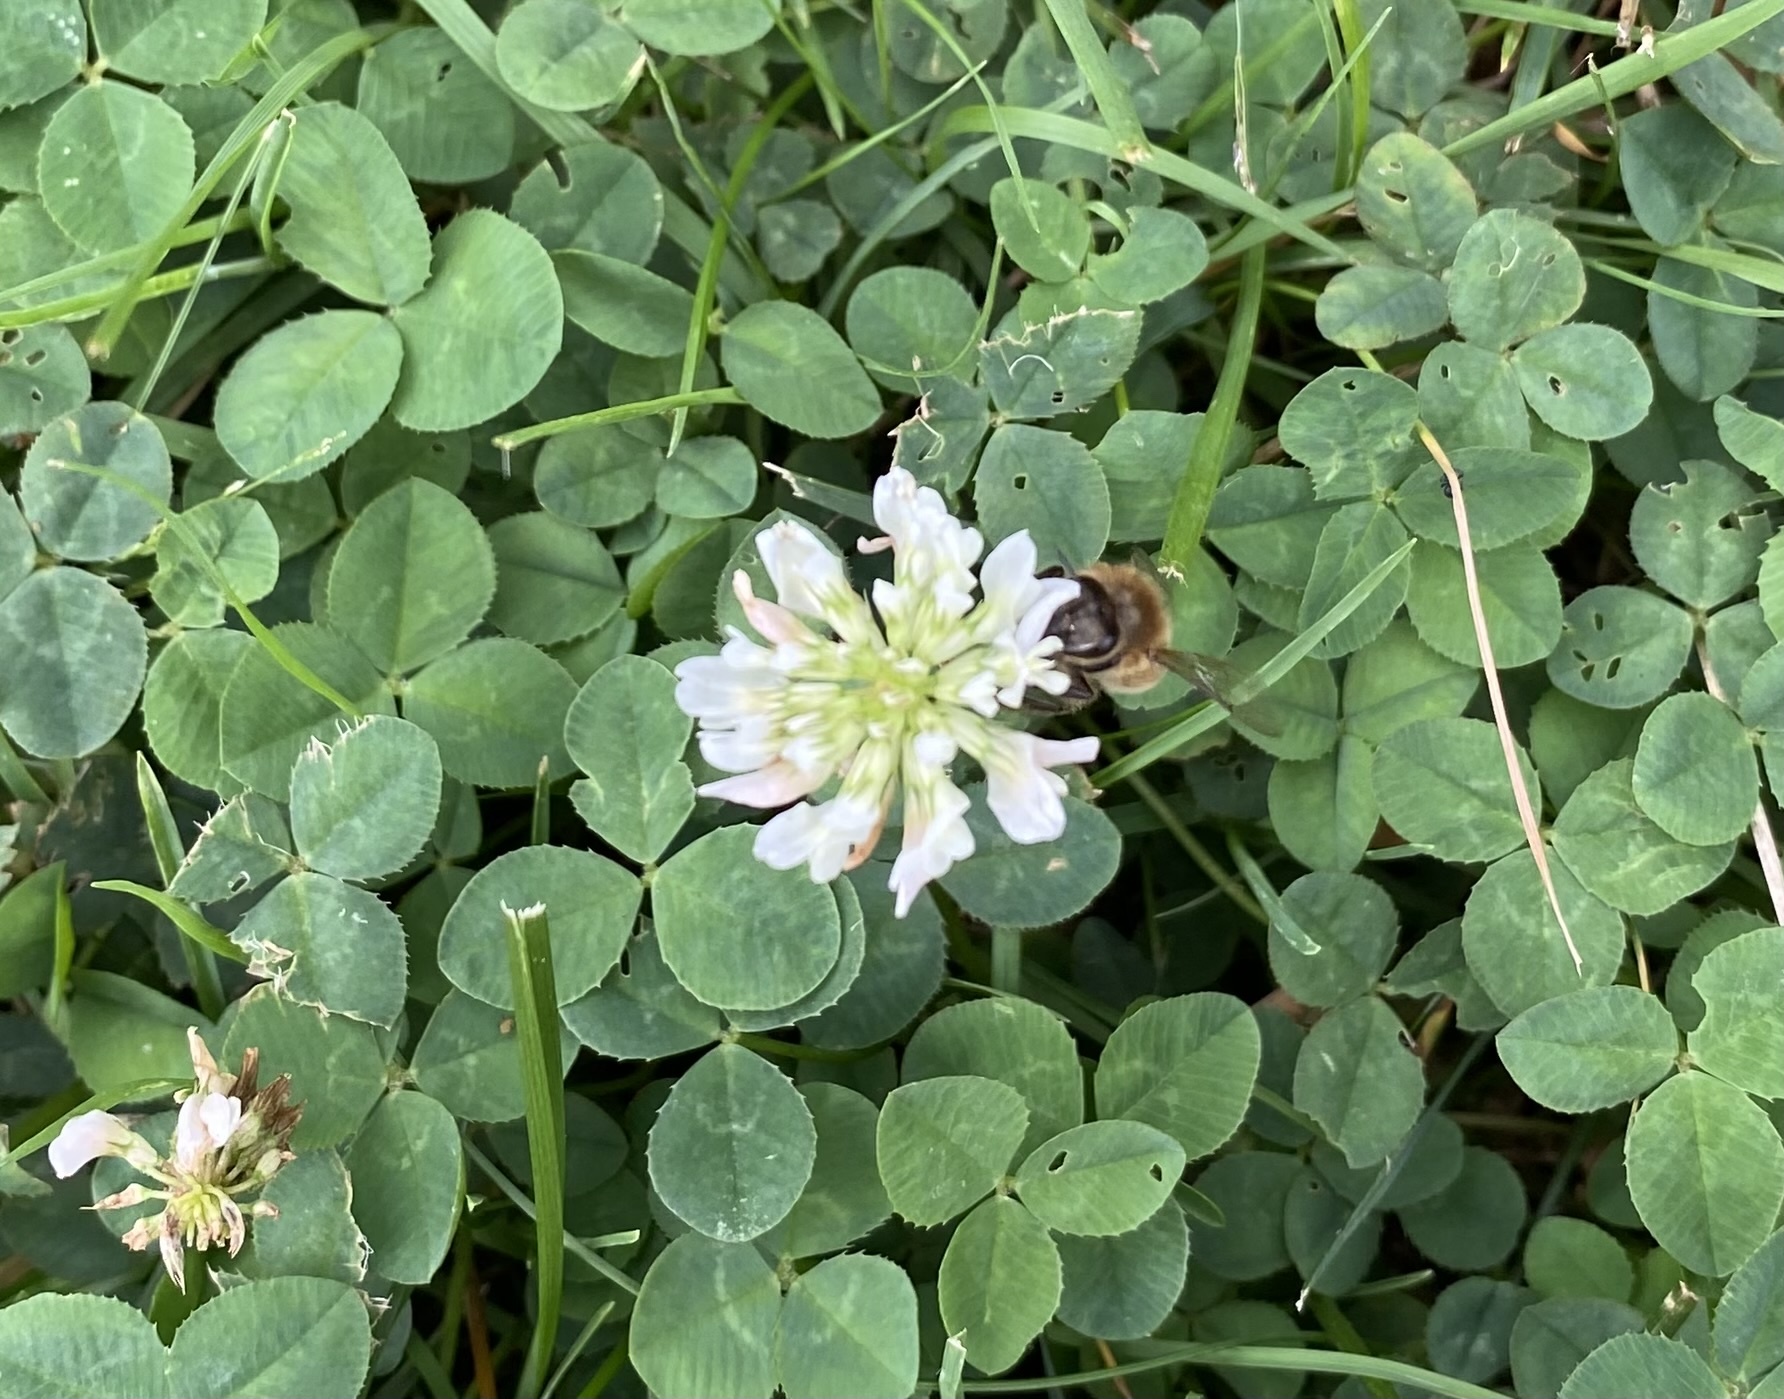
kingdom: Animalia
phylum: Arthropoda
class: Insecta
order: Hymenoptera
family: Apidae
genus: Apis
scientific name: Apis mellifera
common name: Honey bee
